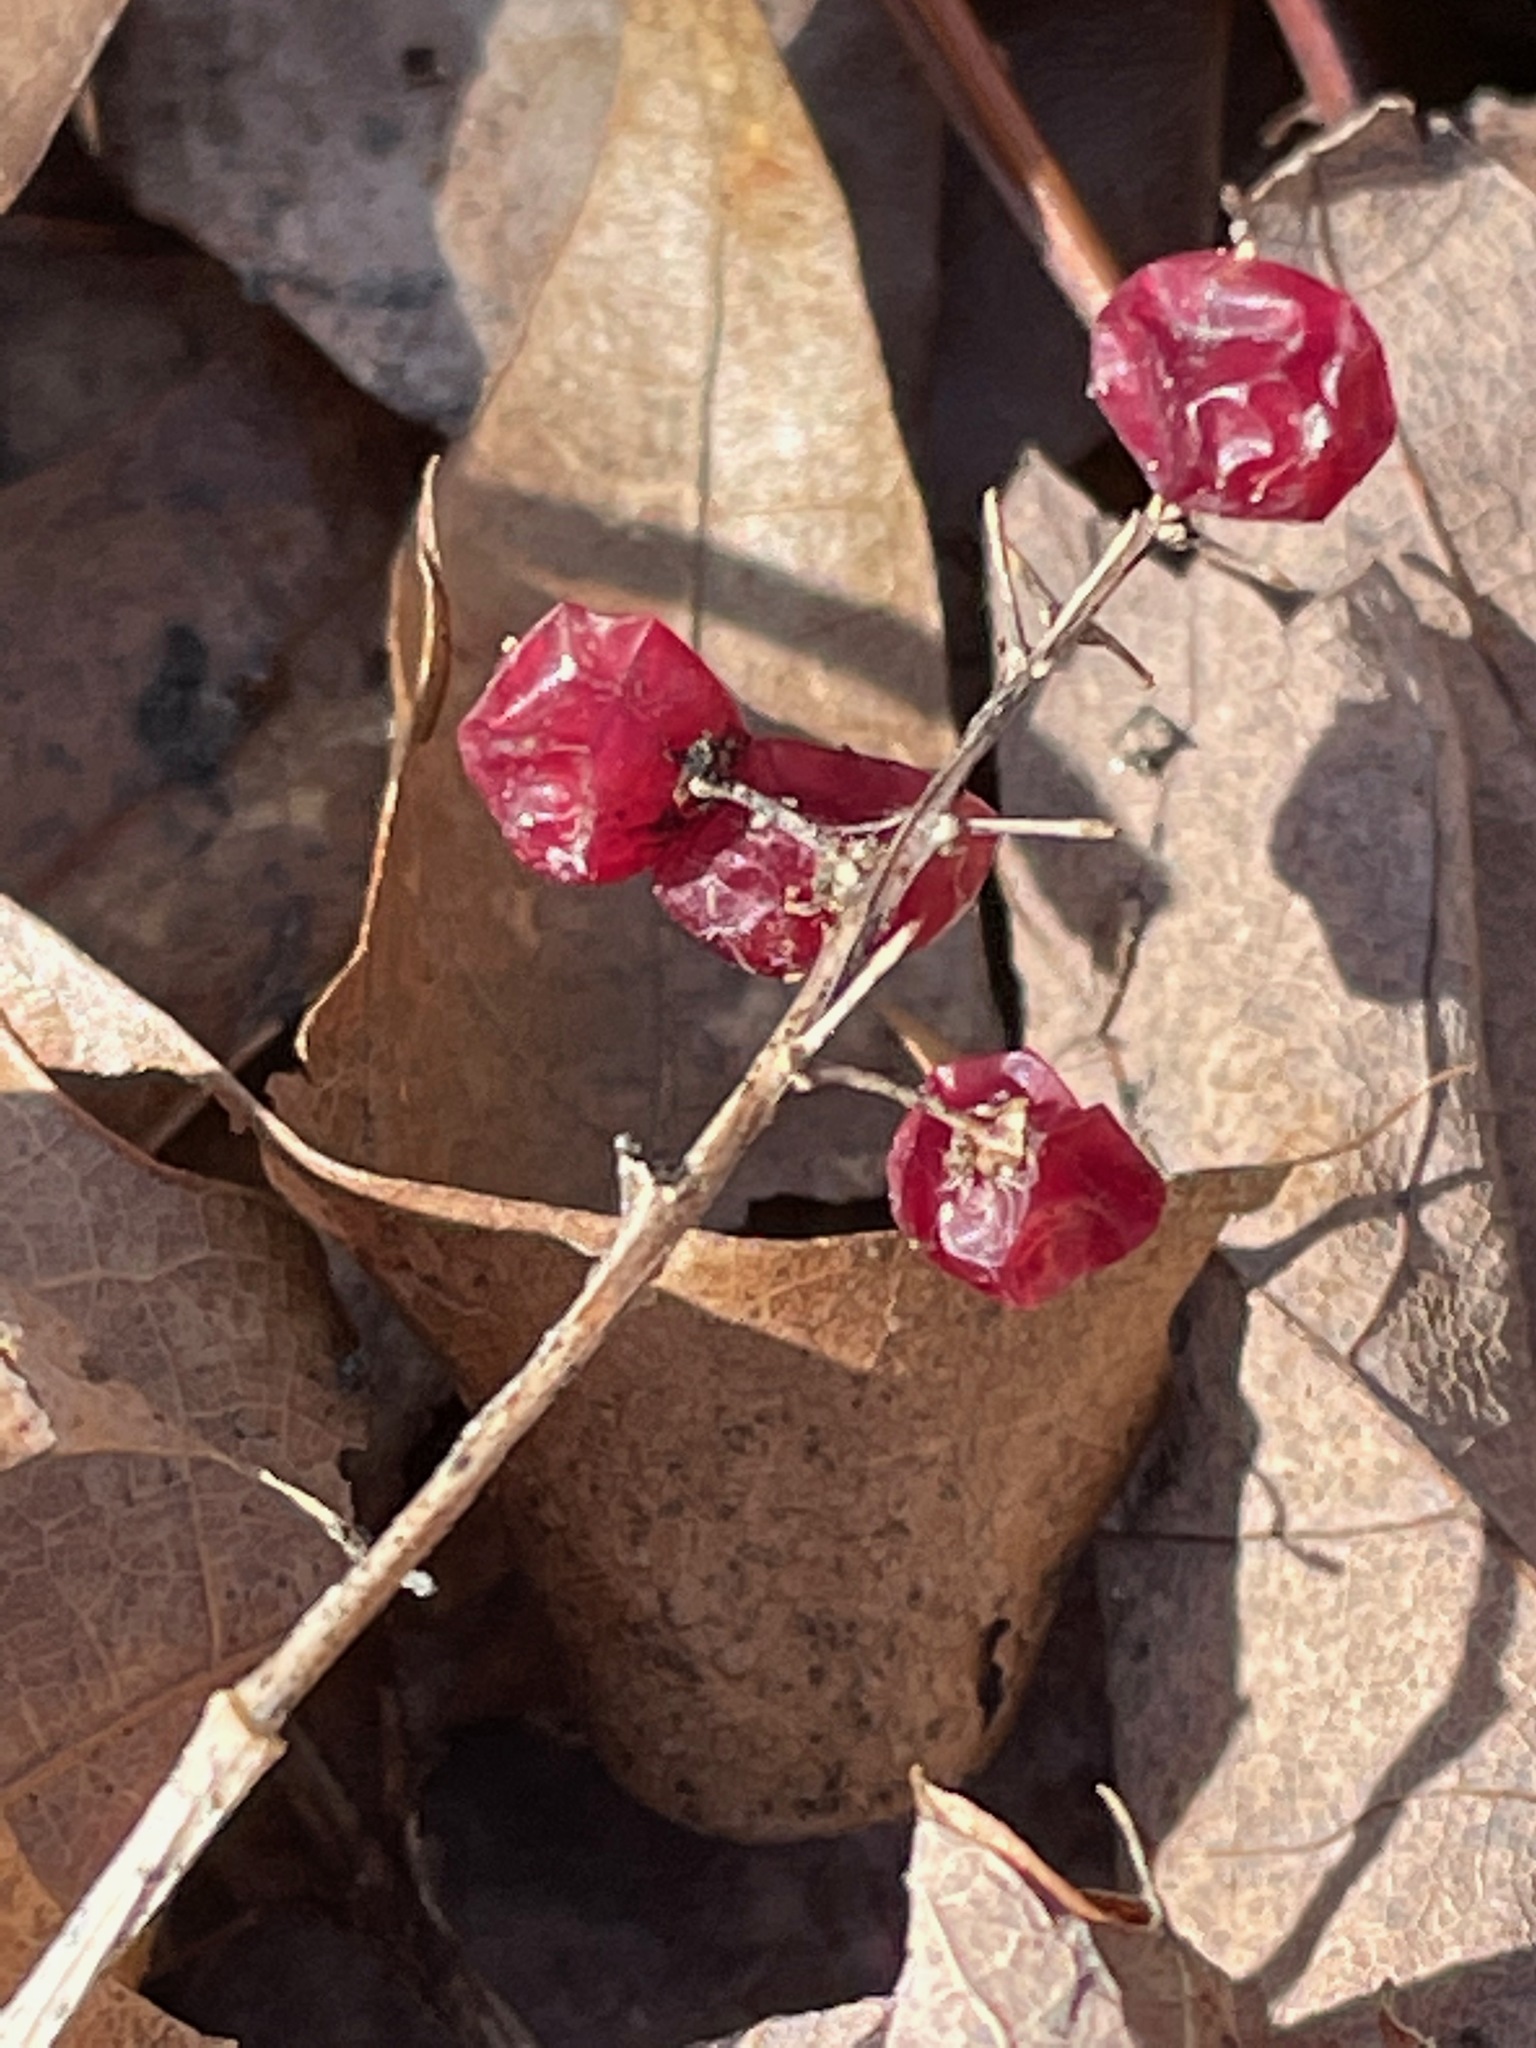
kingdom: Plantae
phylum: Tracheophyta
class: Liliopsida
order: Asparagales
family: Asparagaceae
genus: Maianthemum
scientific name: Maianthemum canadense
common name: False lily-of-the-valley
